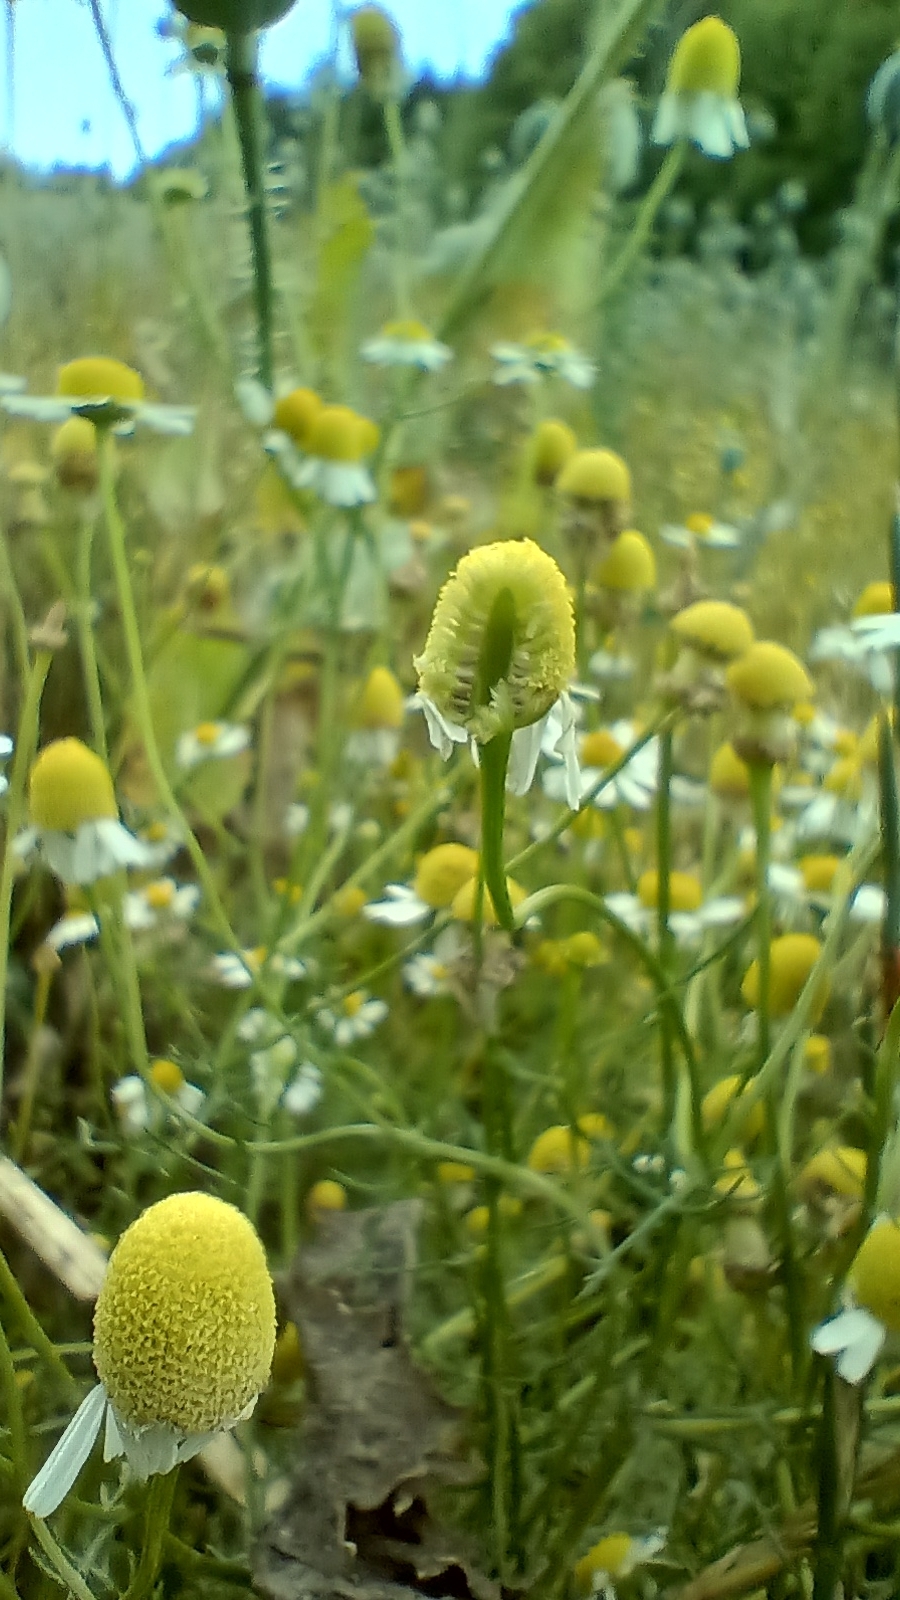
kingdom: Plantae
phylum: Tracheophyta
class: Magnoliopsida
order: Asterales
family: Asteraceae
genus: Matricaria
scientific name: Matricaria chamomilla
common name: Scented mayweed
